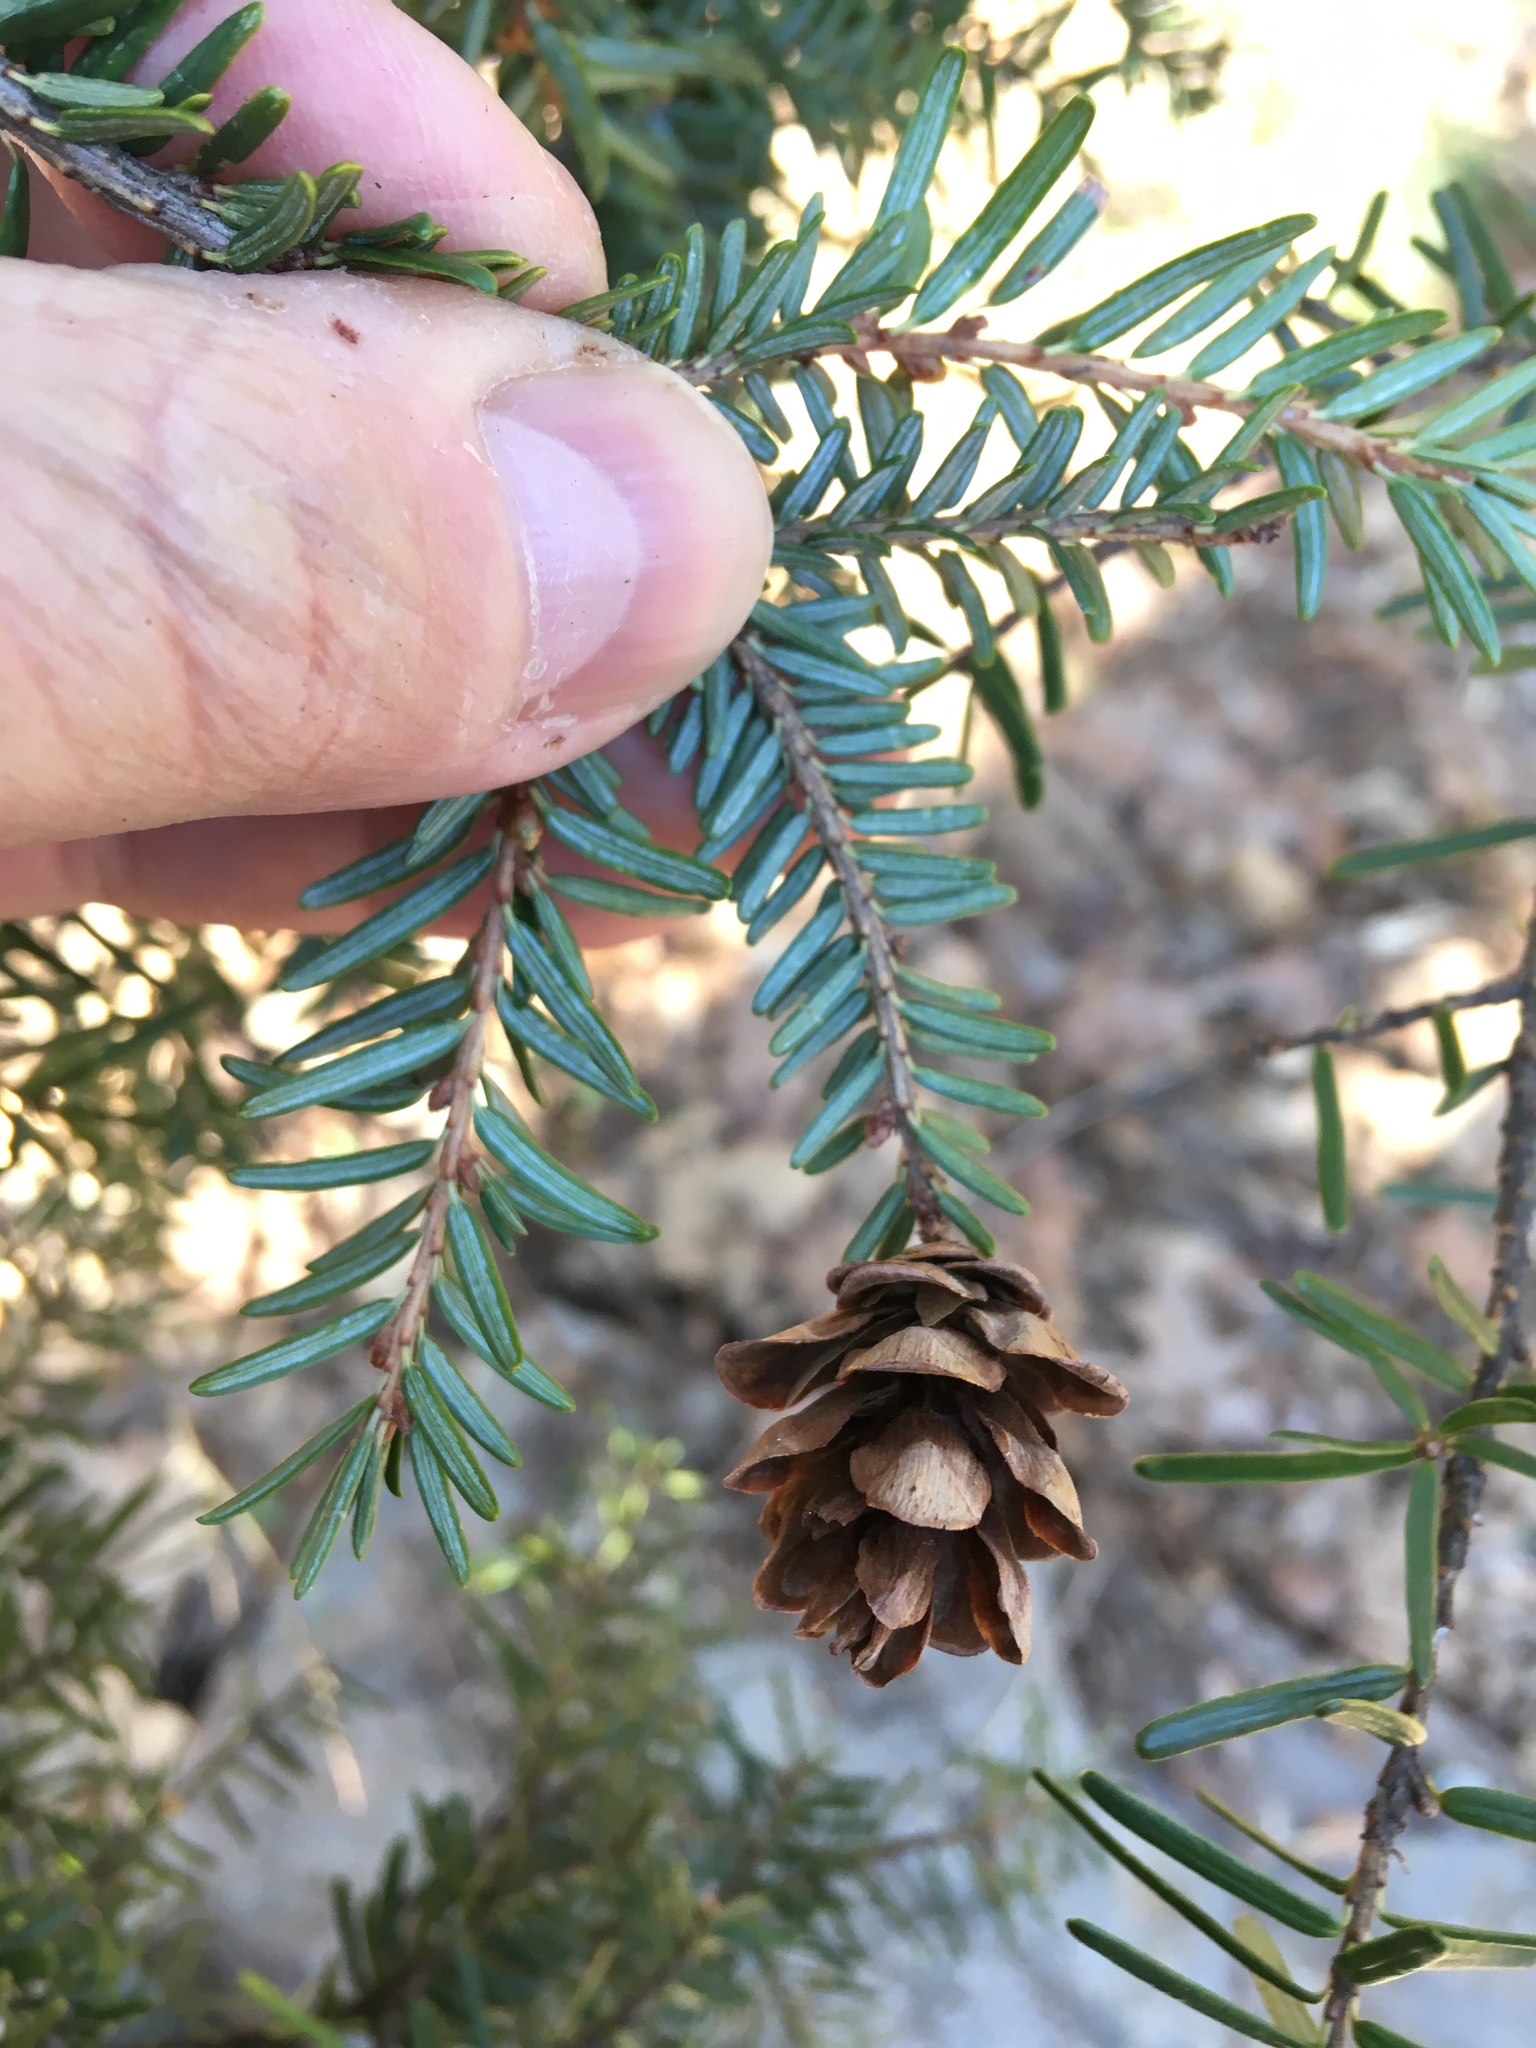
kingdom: Plantae
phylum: Tracheophyta
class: Pinopsida
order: Pinales
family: Pinaceae
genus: Tsuga
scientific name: Tsuga canadensis
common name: Eastern hemlock
